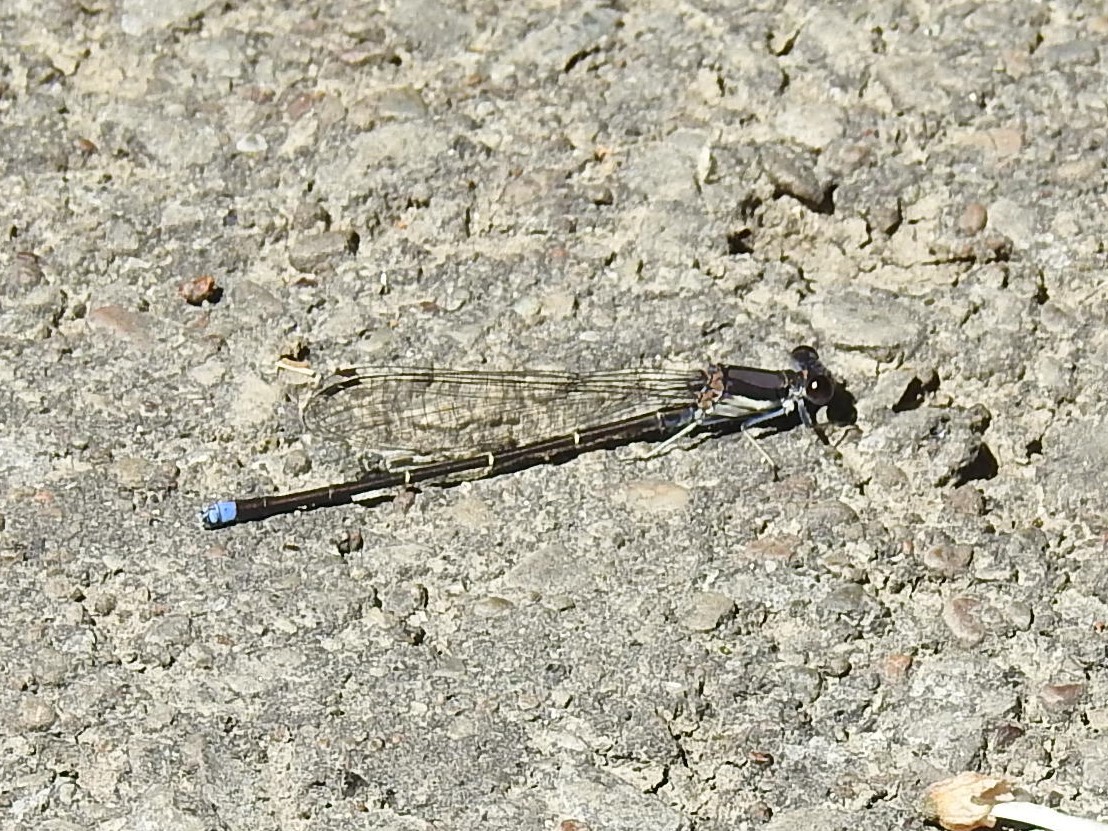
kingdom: Animalia
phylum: Arthropoda
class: Insecta
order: Odonata
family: Coenagrionidae
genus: Argia
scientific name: Argia tibialis
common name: Blue-tipped dancer
